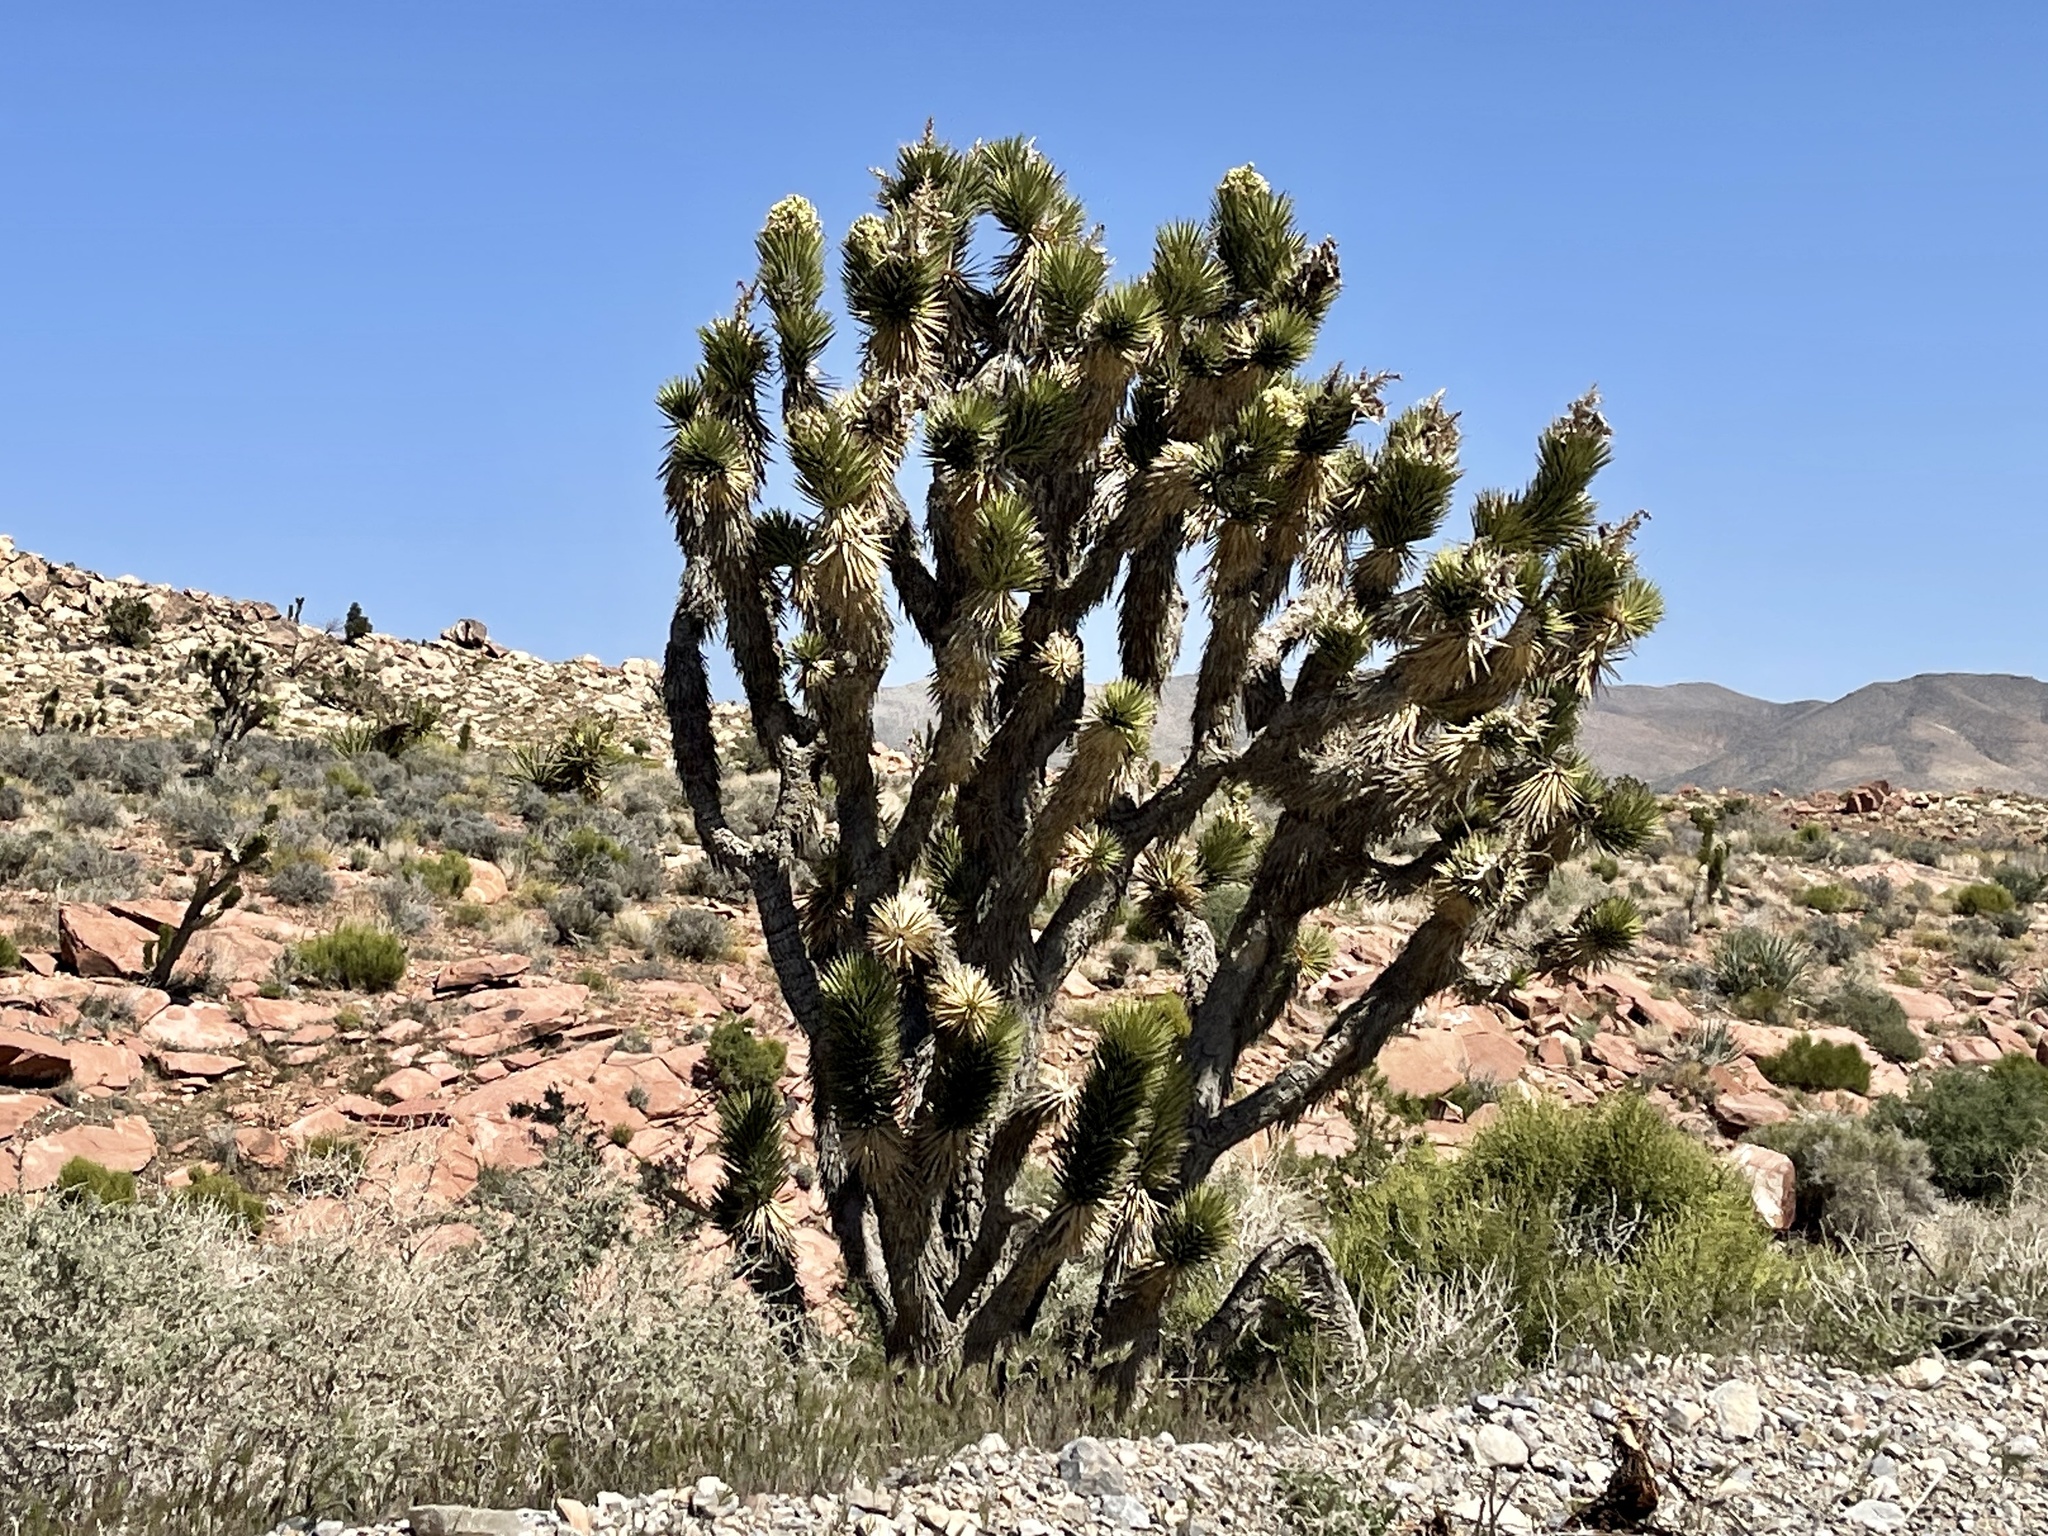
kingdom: Plantae
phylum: Tracheophyta
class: Liliopsida
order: Asparagales
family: Asparagaceae
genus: Yucca
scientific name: Yucca brevifolia
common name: Joshua tree
